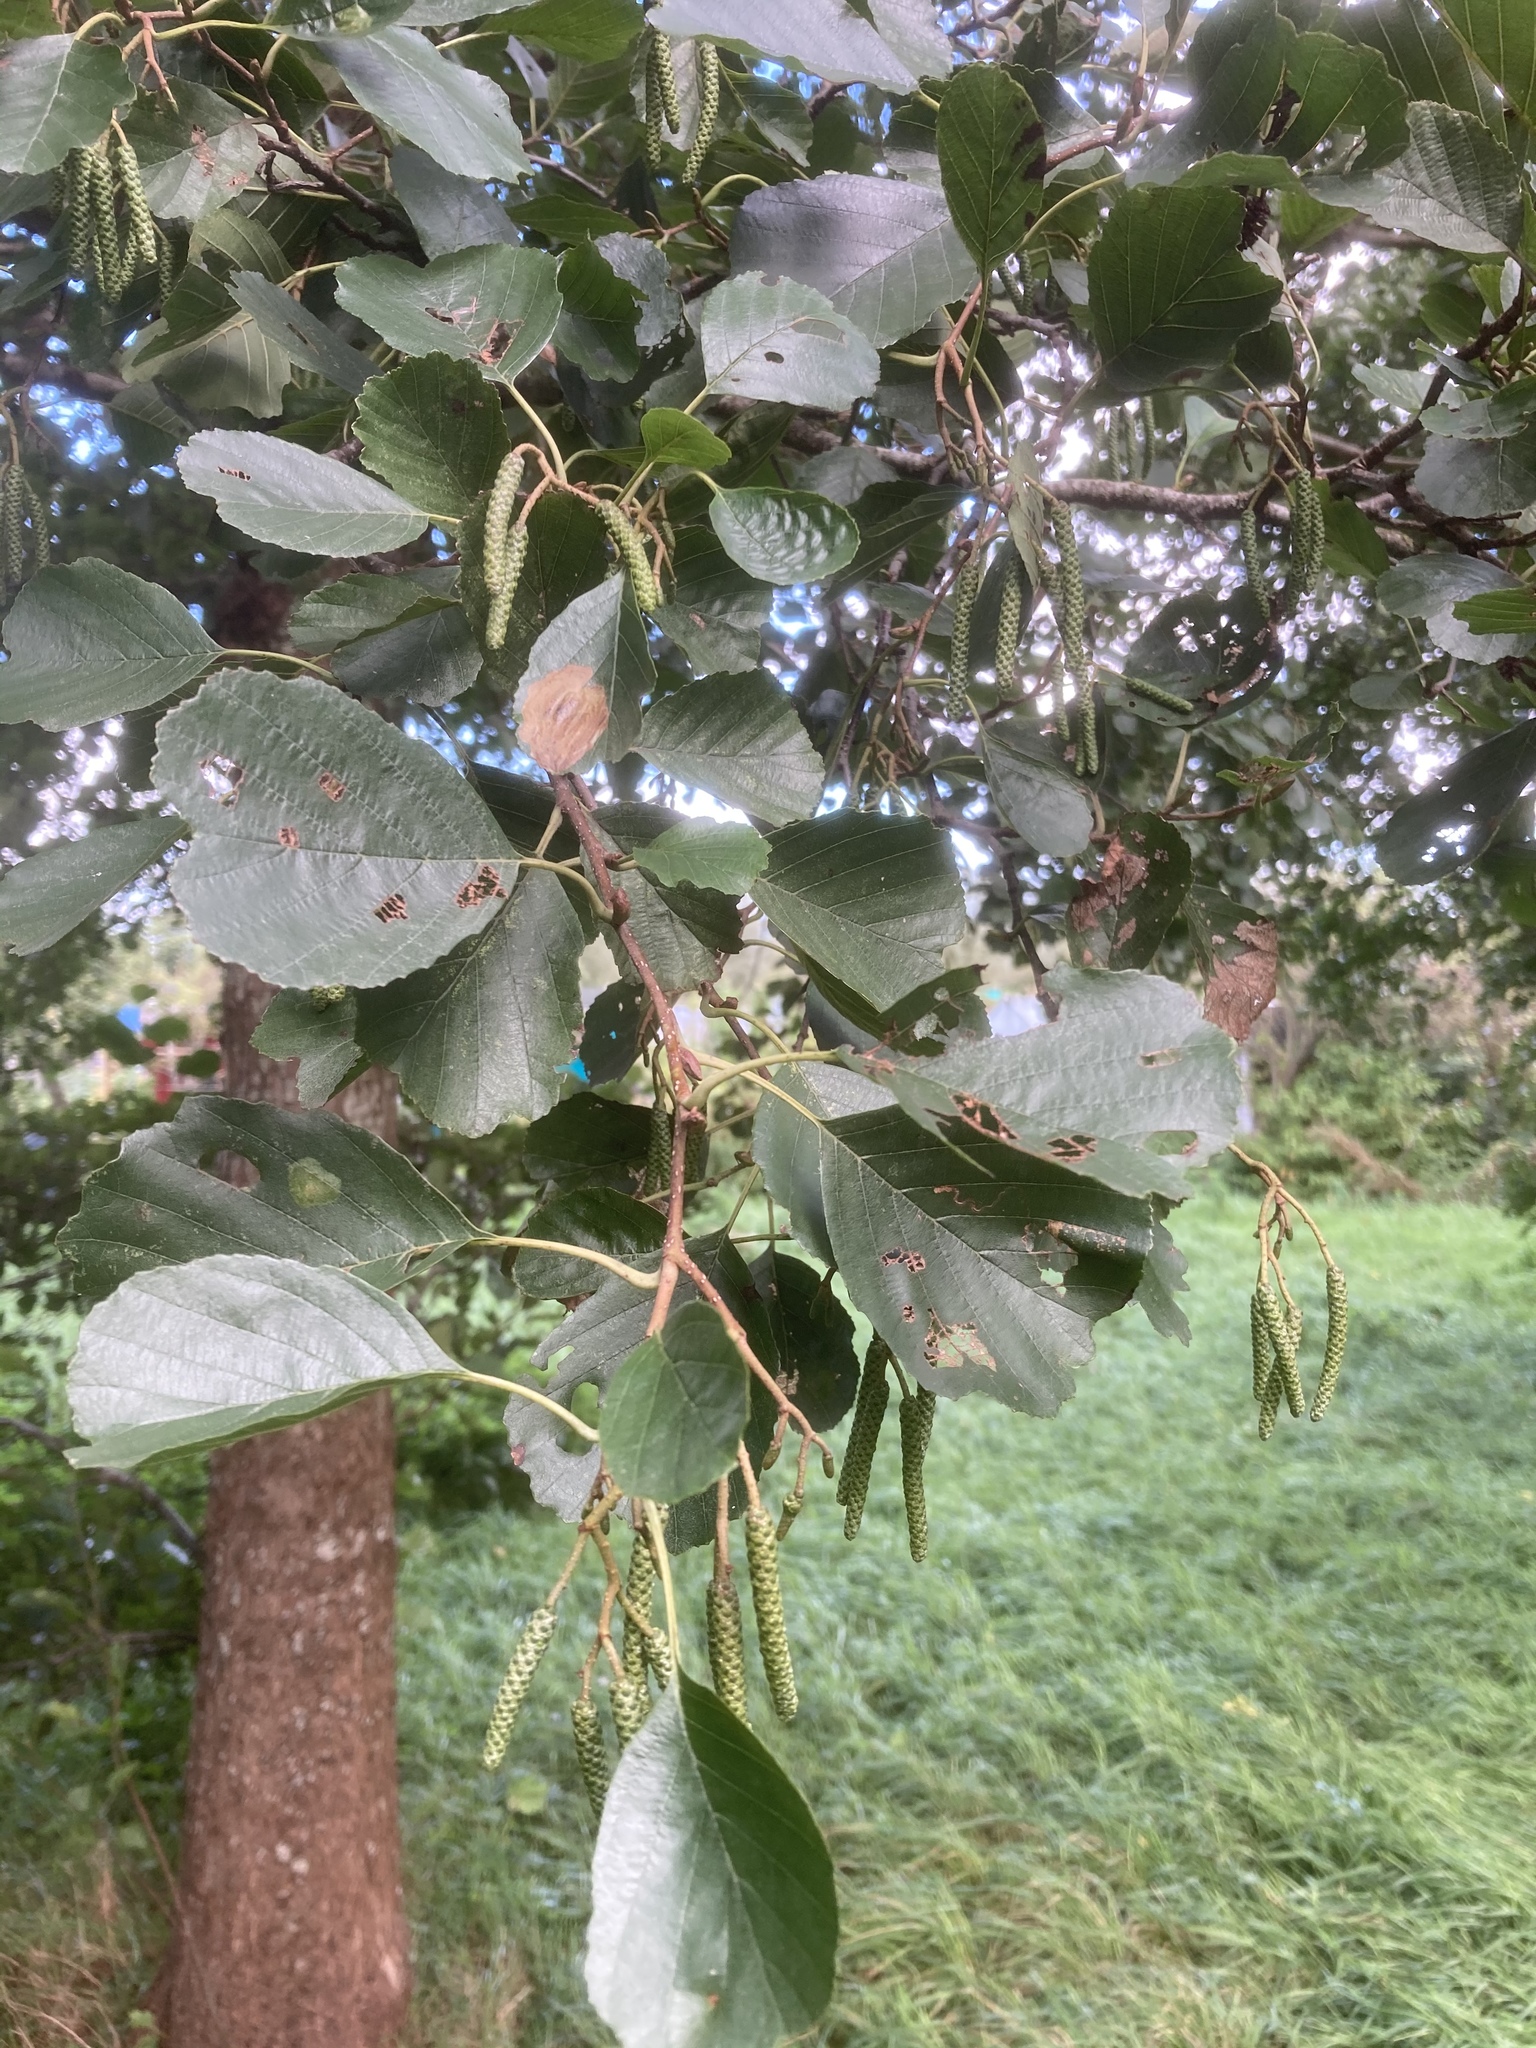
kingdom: Plantae
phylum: Tracheophyta
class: Magnoliopsida
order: Fagales
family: Betulaceae
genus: Alnus
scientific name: Alnus glutinosa
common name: Black alder
